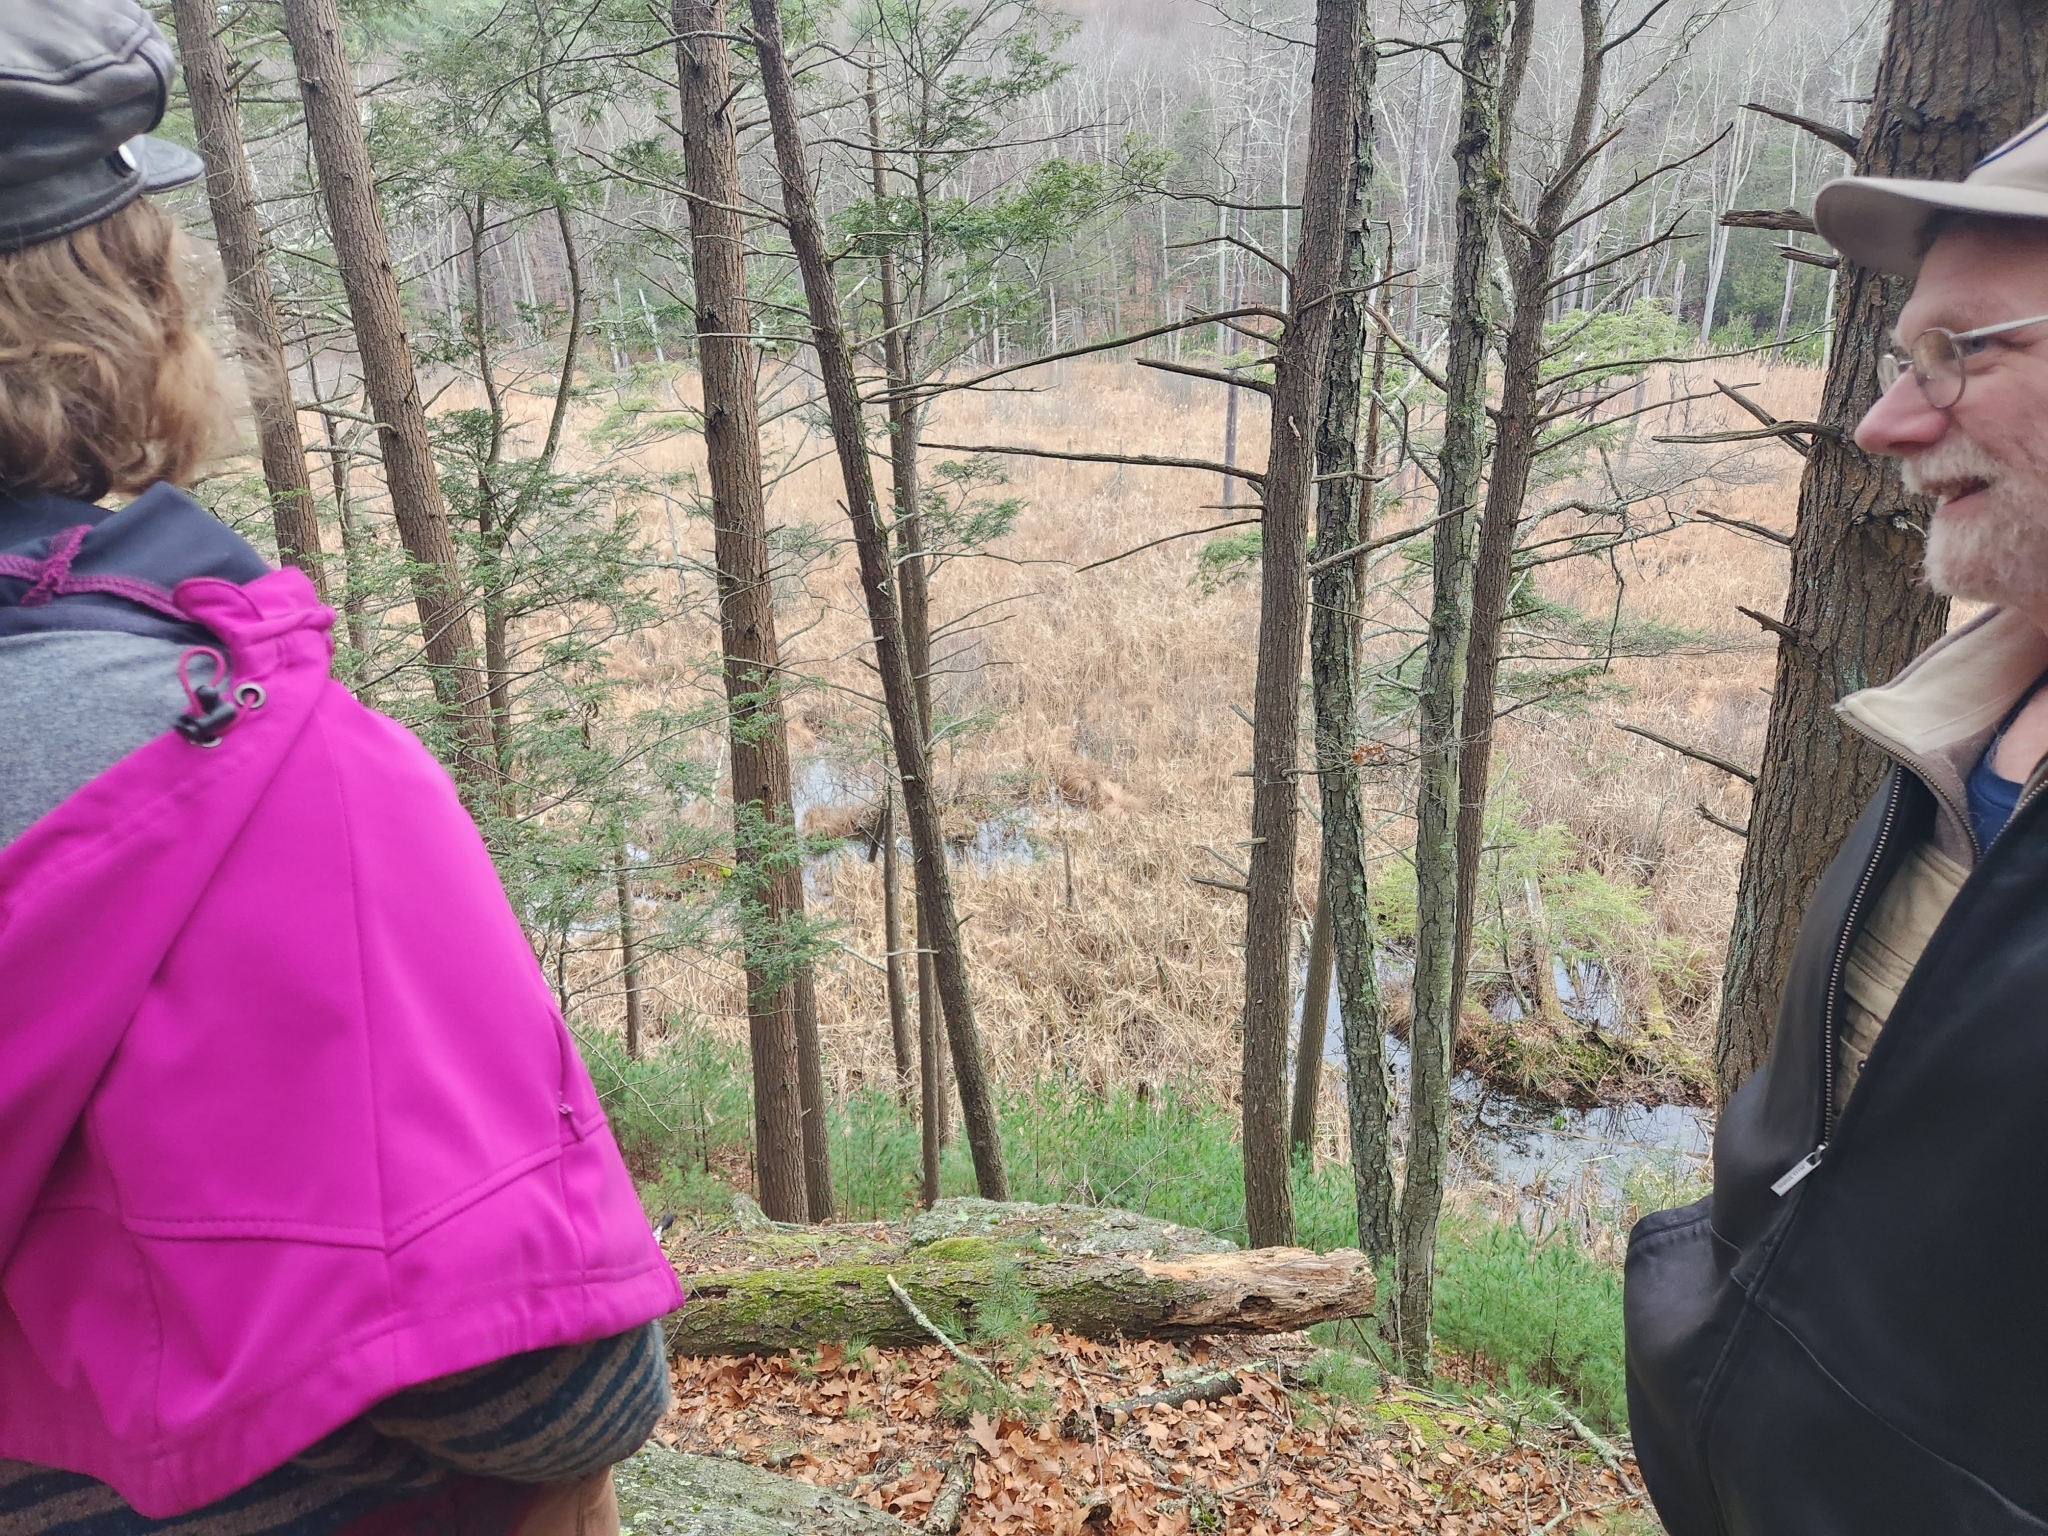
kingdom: Plantae
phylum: Tracheophyta
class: Pinopsida
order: Pinales
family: Pinaceae
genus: Tsuga
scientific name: Tsuga canadensis
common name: Eastern hemlock
